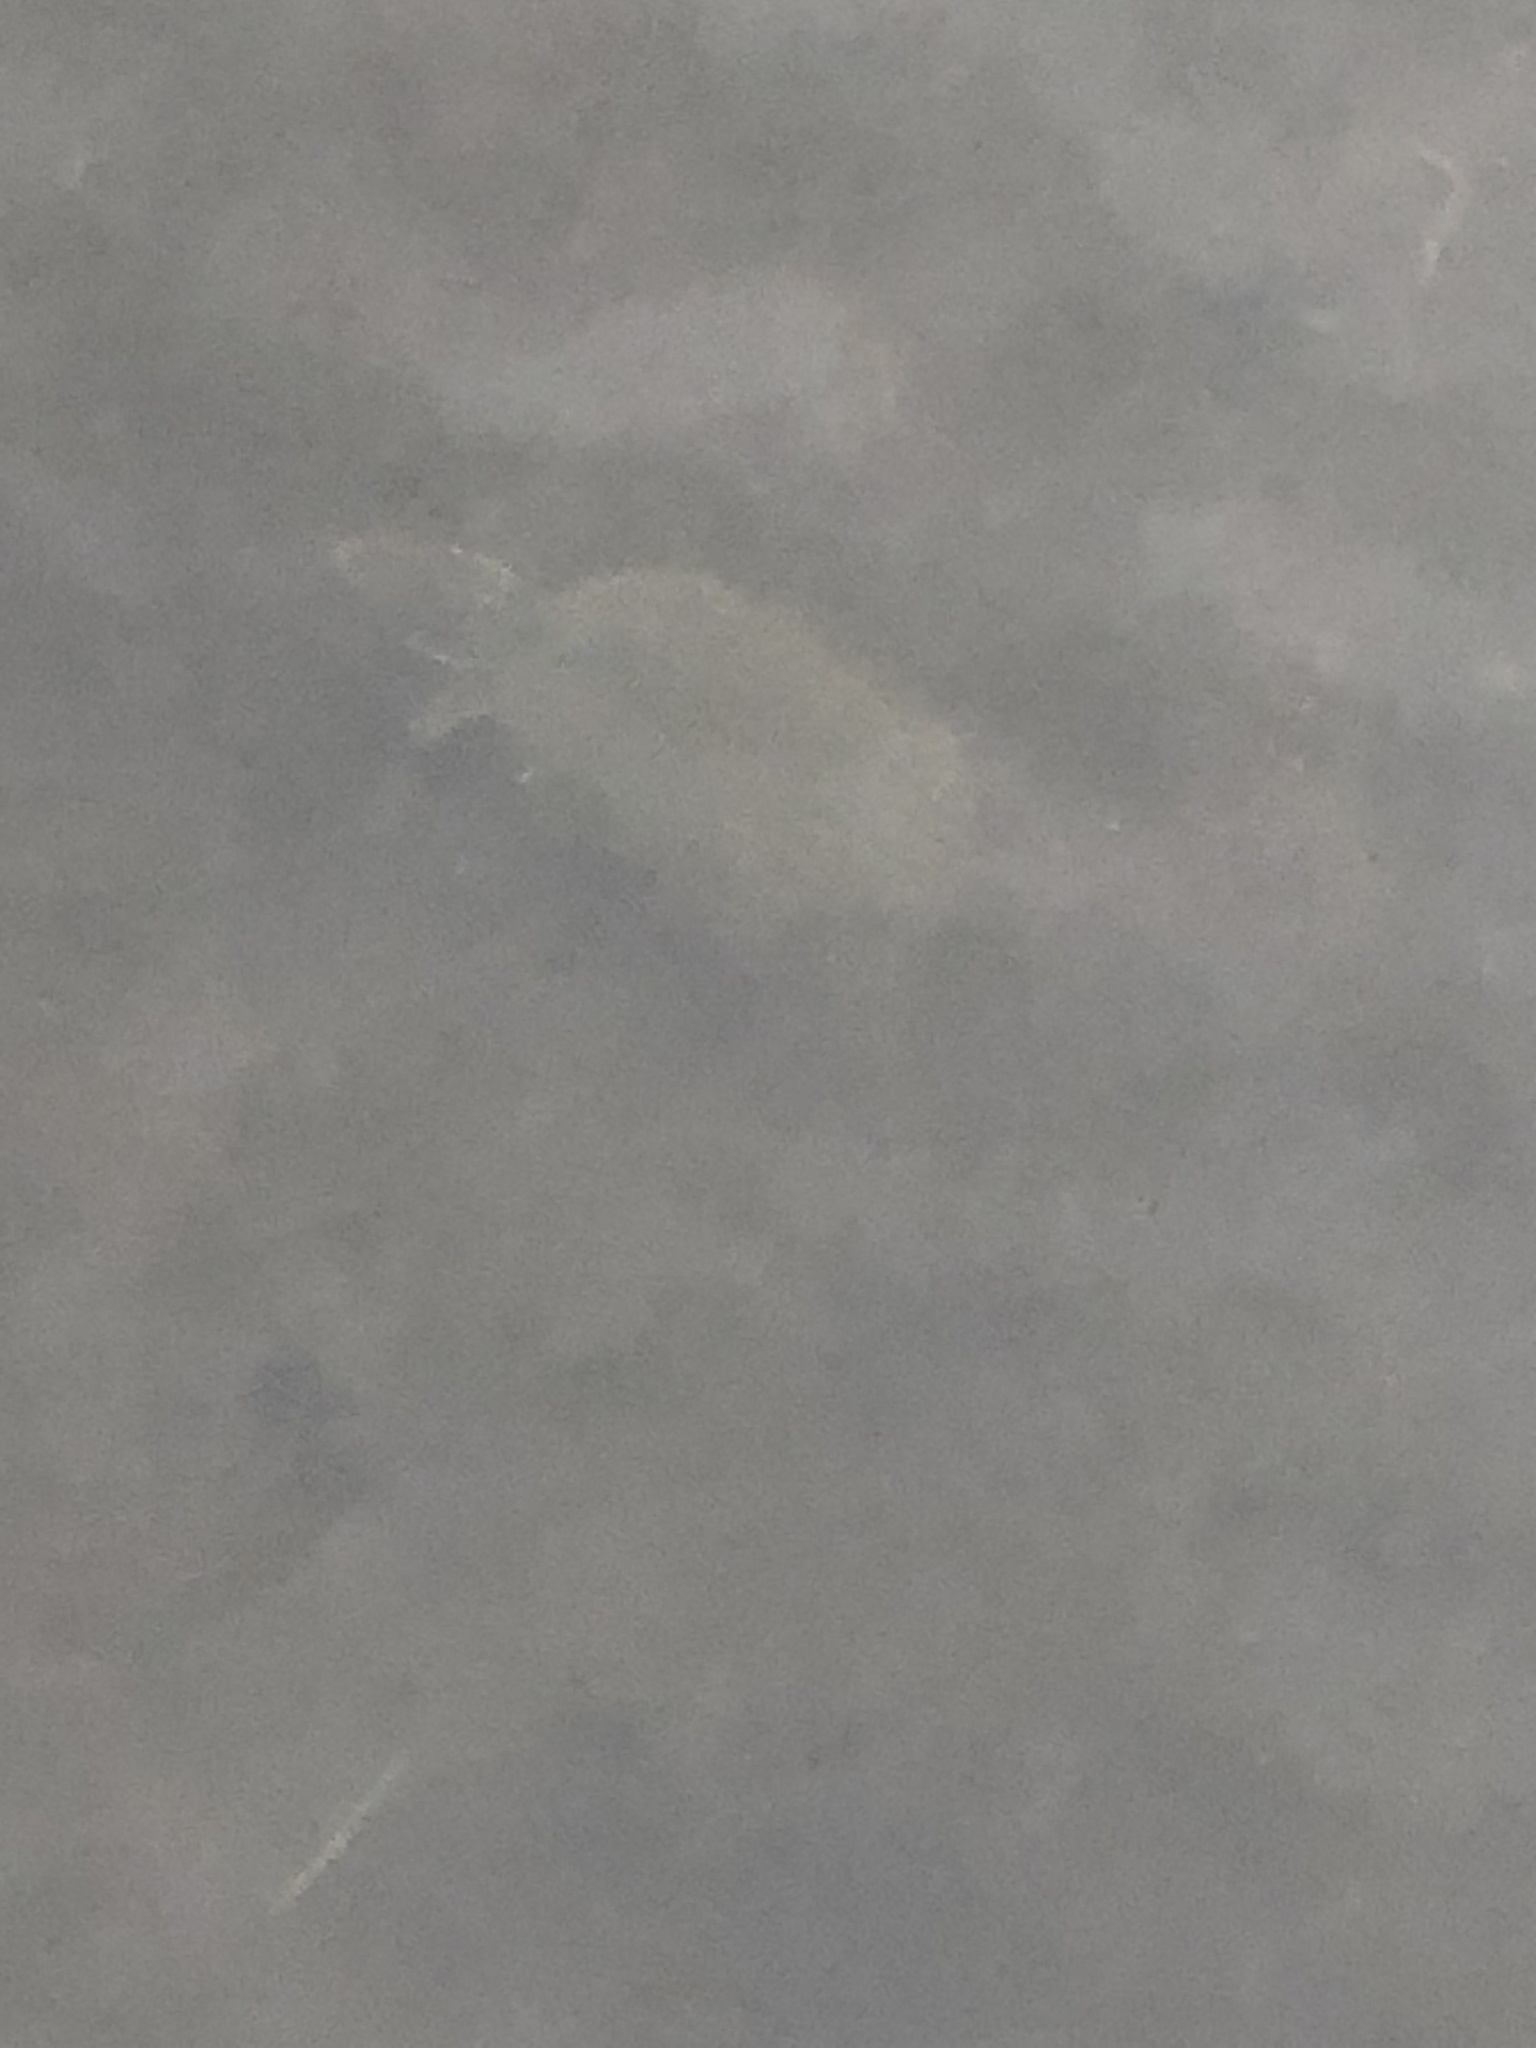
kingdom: Animalia
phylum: Chordata
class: Testudines
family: Kinosternidae
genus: Sternotherus
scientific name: Sternotherus odoratus
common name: Common musk turtle
